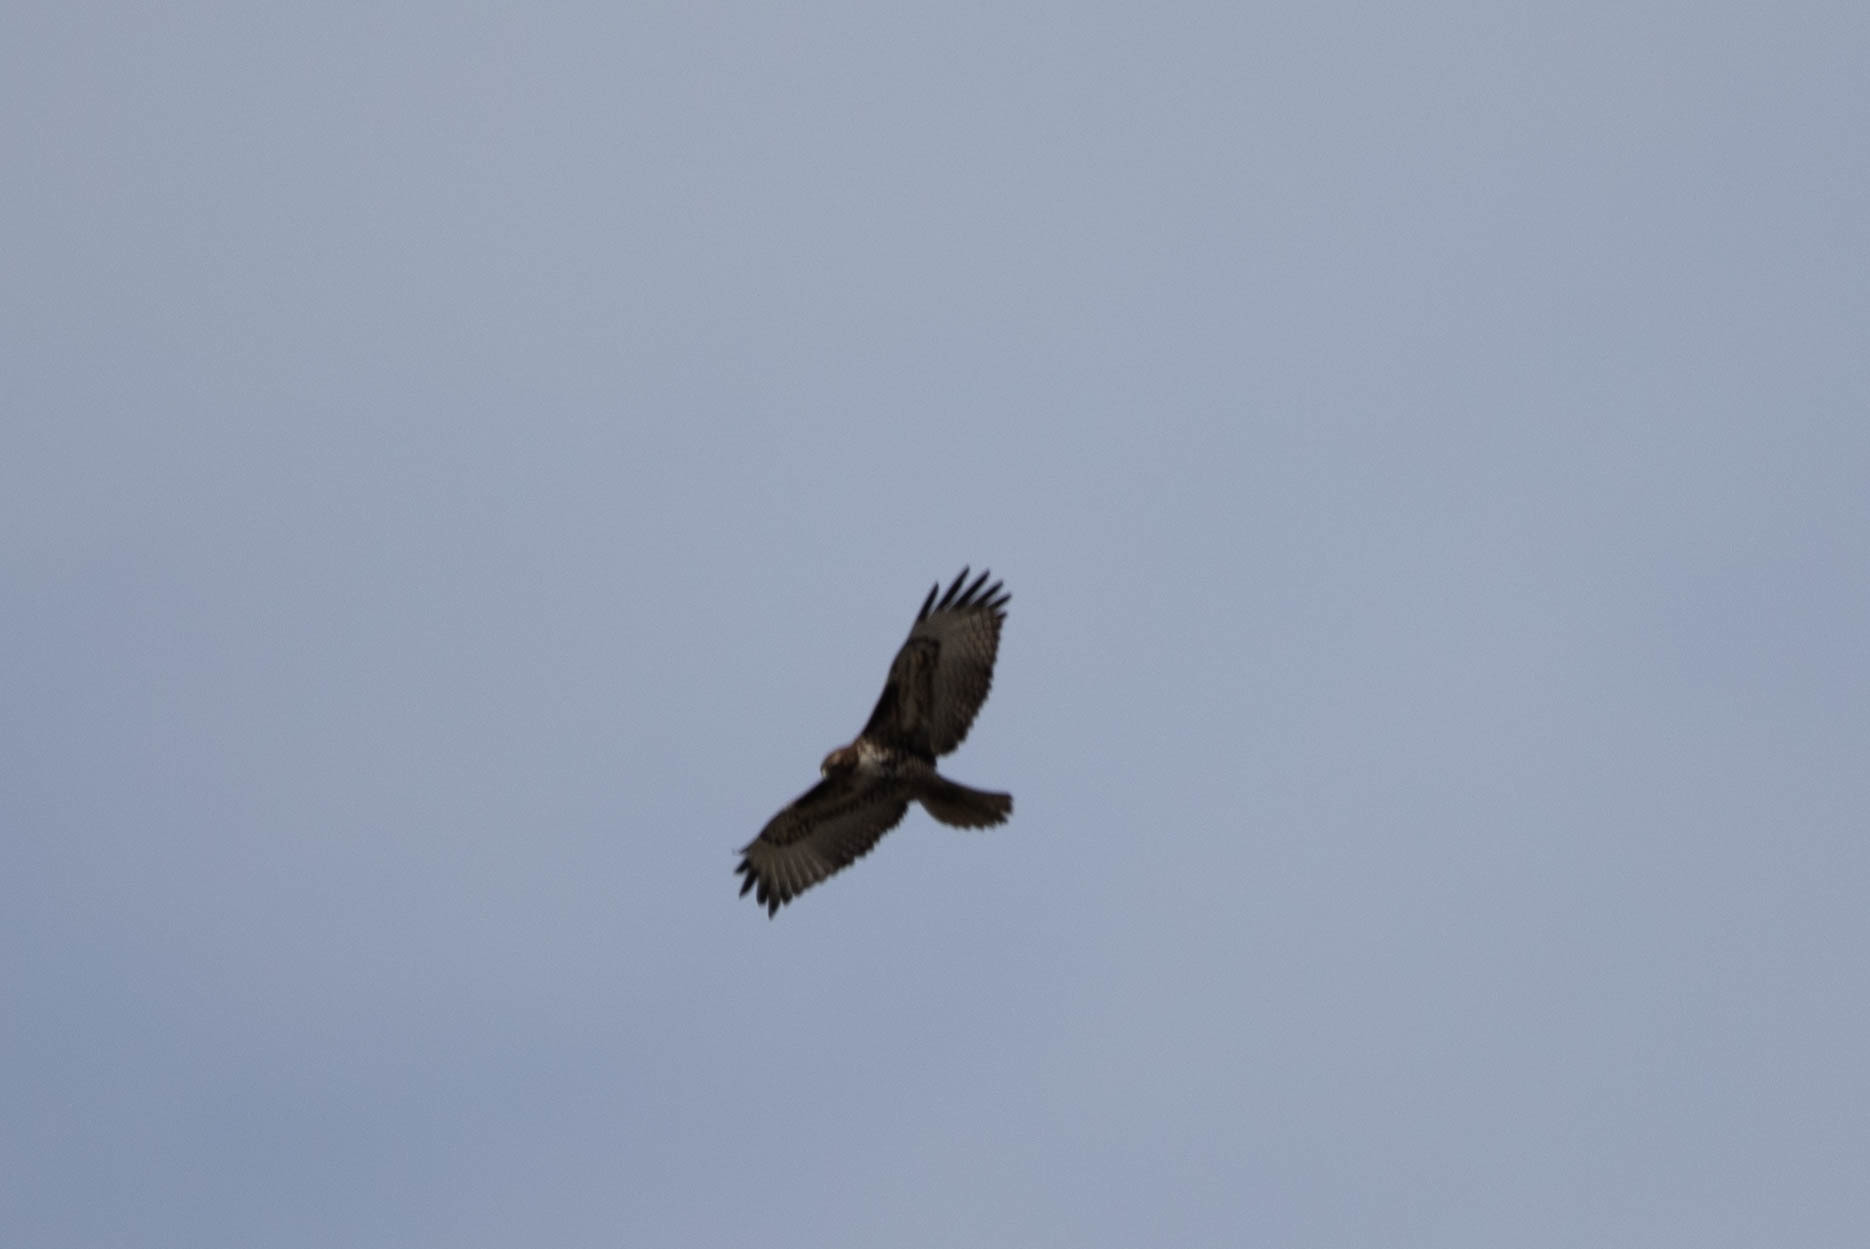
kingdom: Animalia
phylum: Chordata
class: Aves
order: Accipitriformes
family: Accipitridae
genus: Buteo
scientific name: Buteo jamaicensis
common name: Red-tailed hawk
